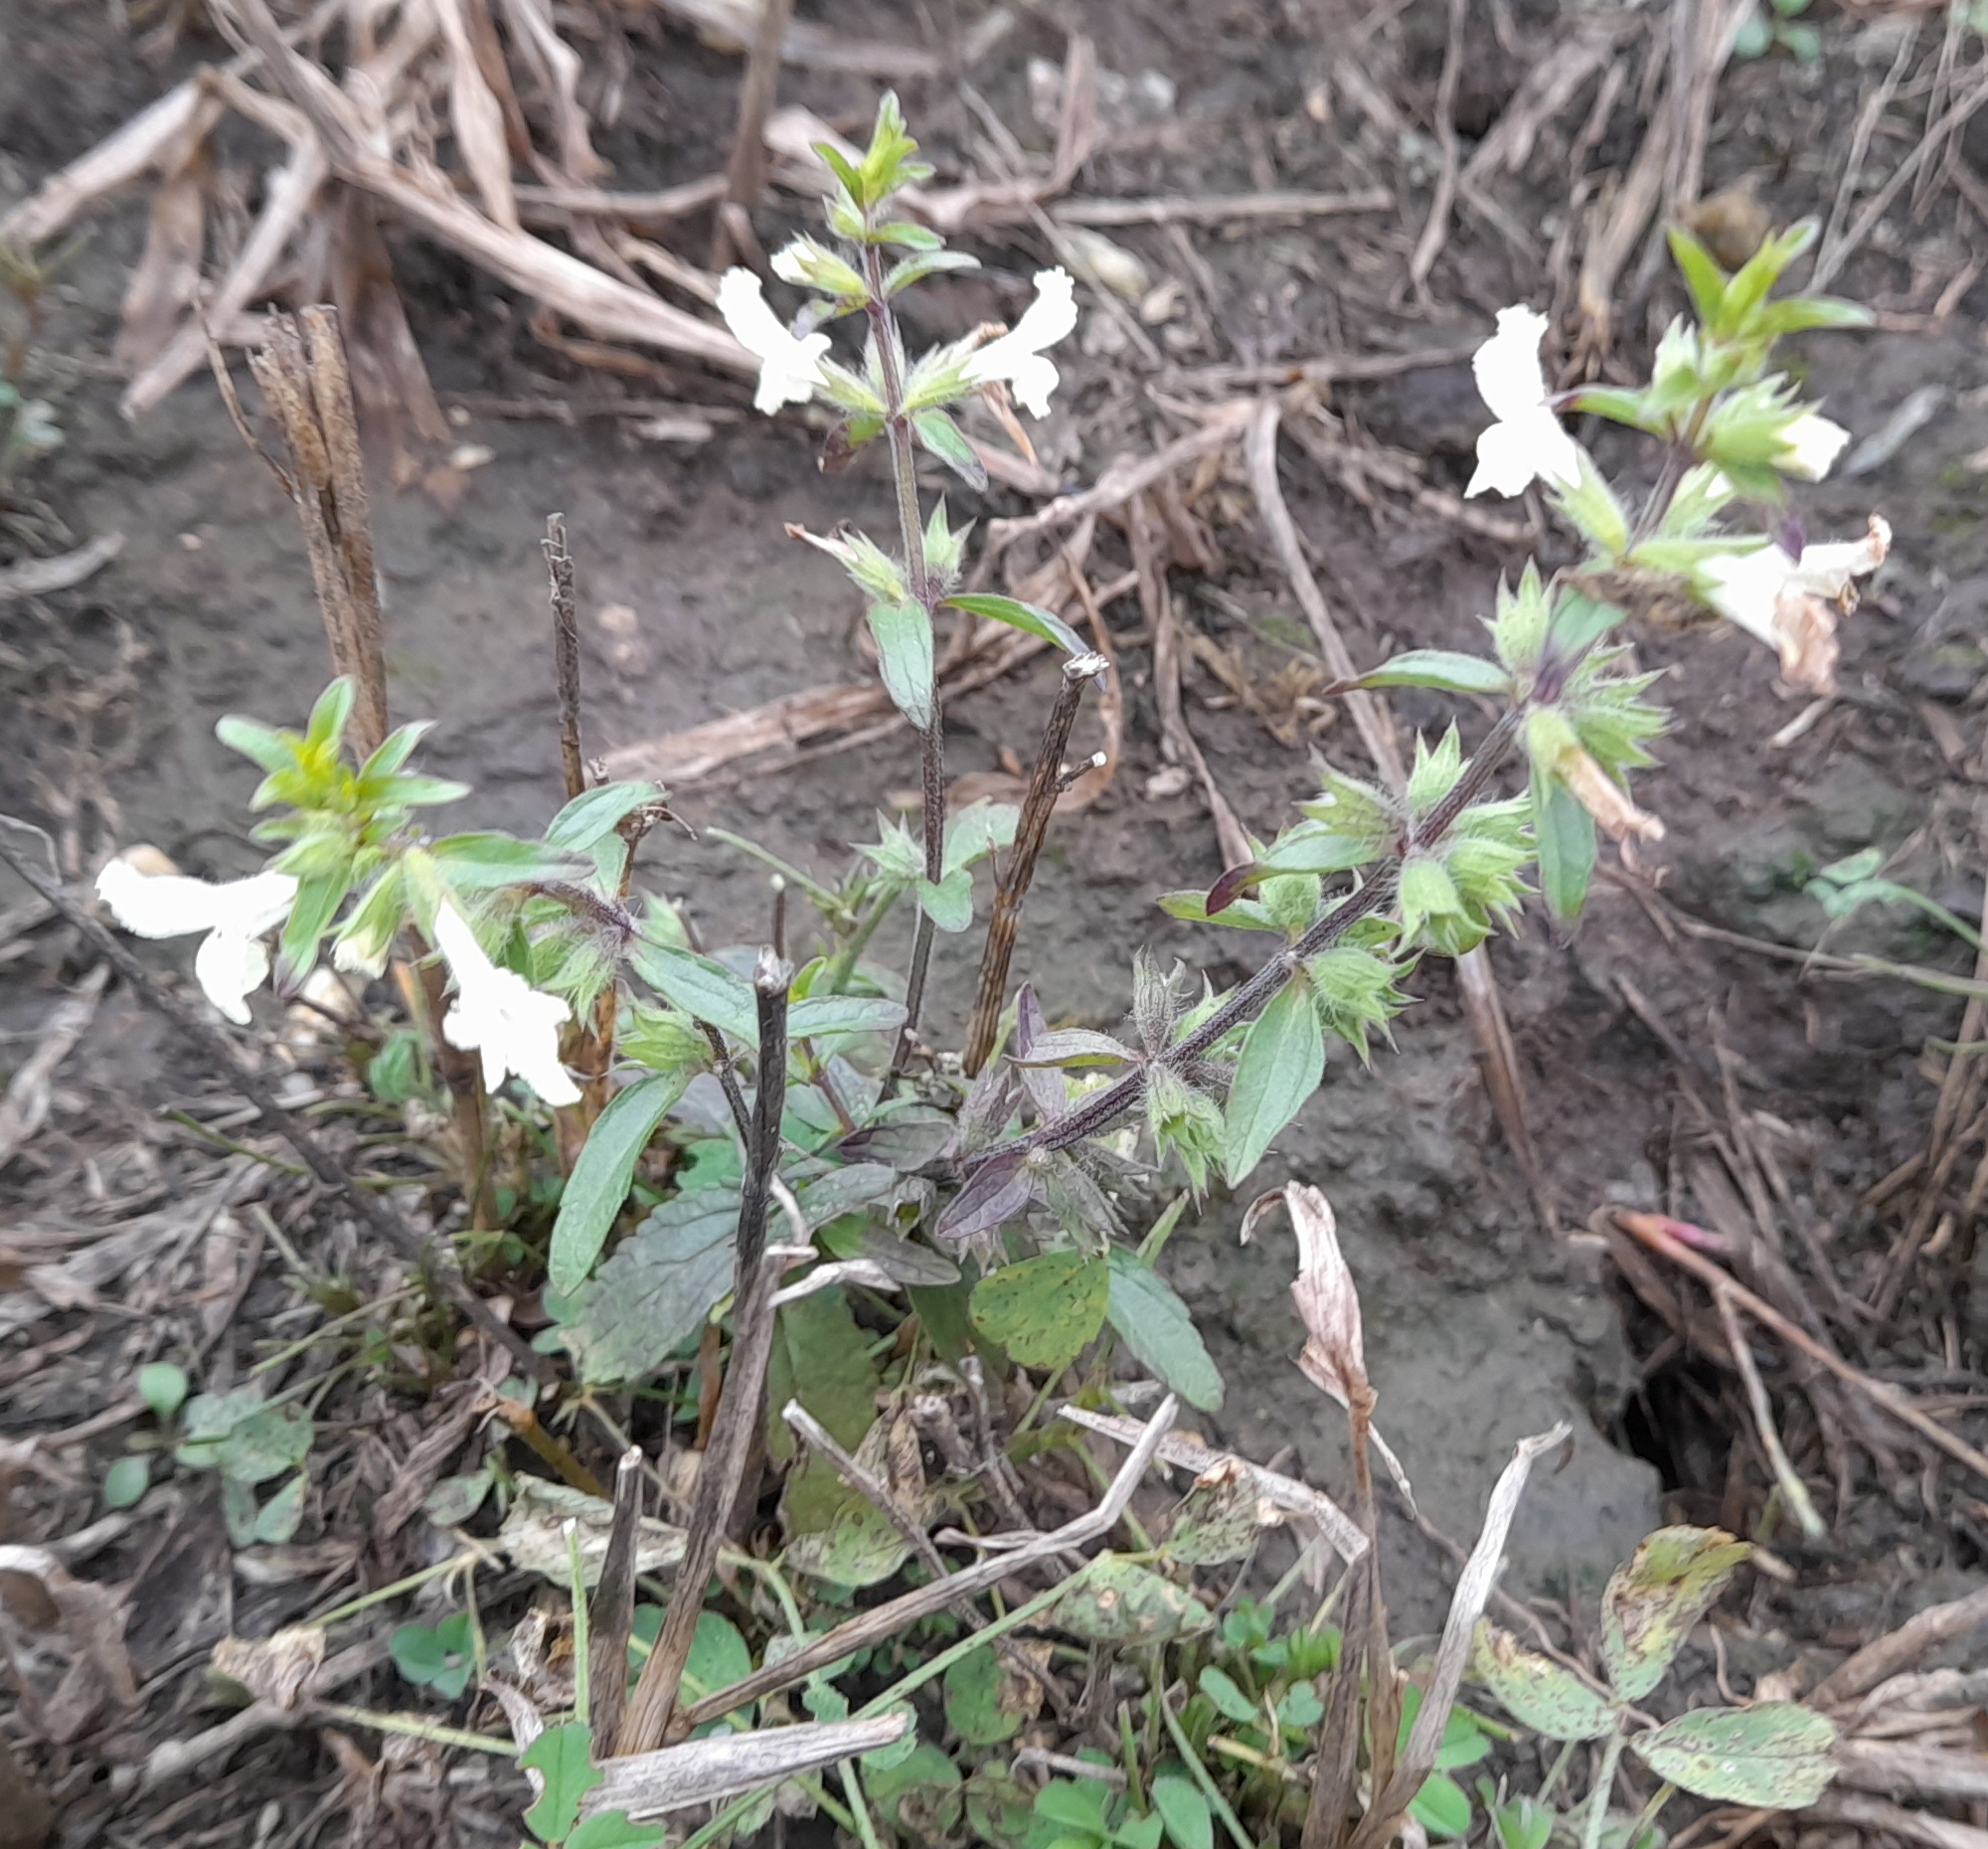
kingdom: Plantae
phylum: Tracheophyta
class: Magnoliopsida
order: Lamiales
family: Lamiaceae
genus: Stachys
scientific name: Stachys annua
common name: Annual yellow-woundwort
